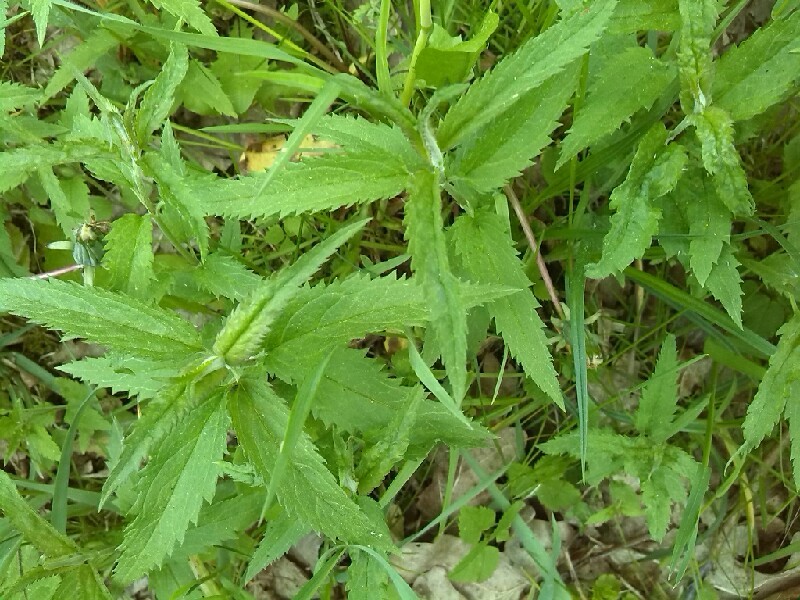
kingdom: Plantae
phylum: Tracheophyta
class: Magnoliopsida
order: Lamiales
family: Plantaginaceae
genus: Veronica
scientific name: Veronica longifolia
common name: Garden speedwell
